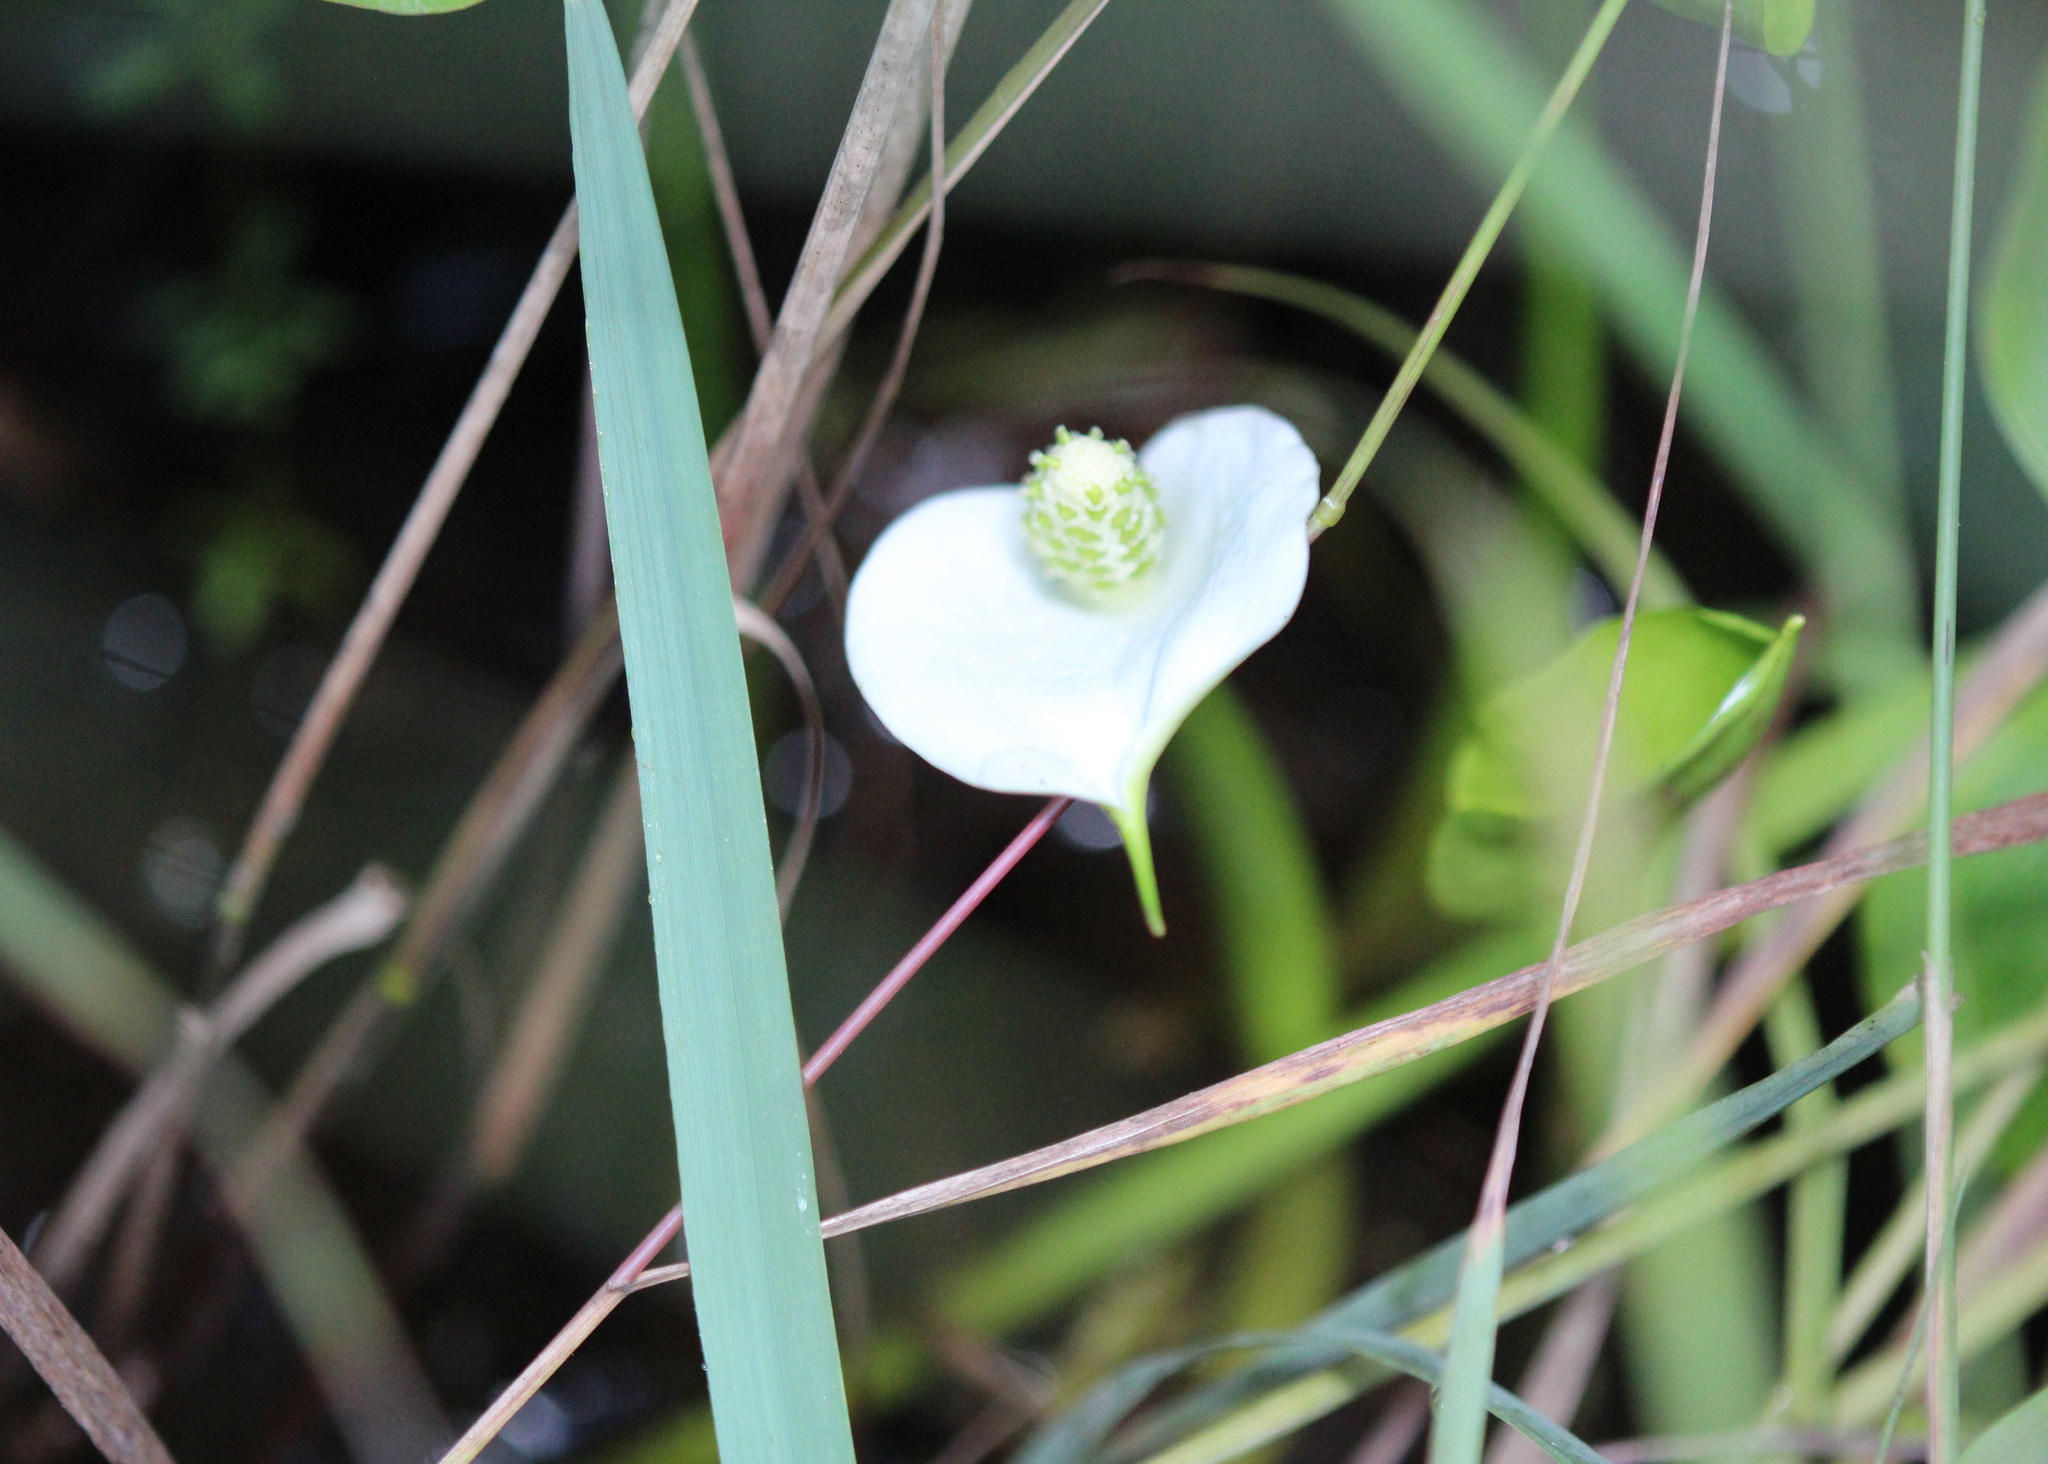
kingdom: Plantae
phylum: Tracheophyta
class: Liliopsida
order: Alismatales
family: Araceae
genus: Calla
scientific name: Calla palustris
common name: Bog arum
